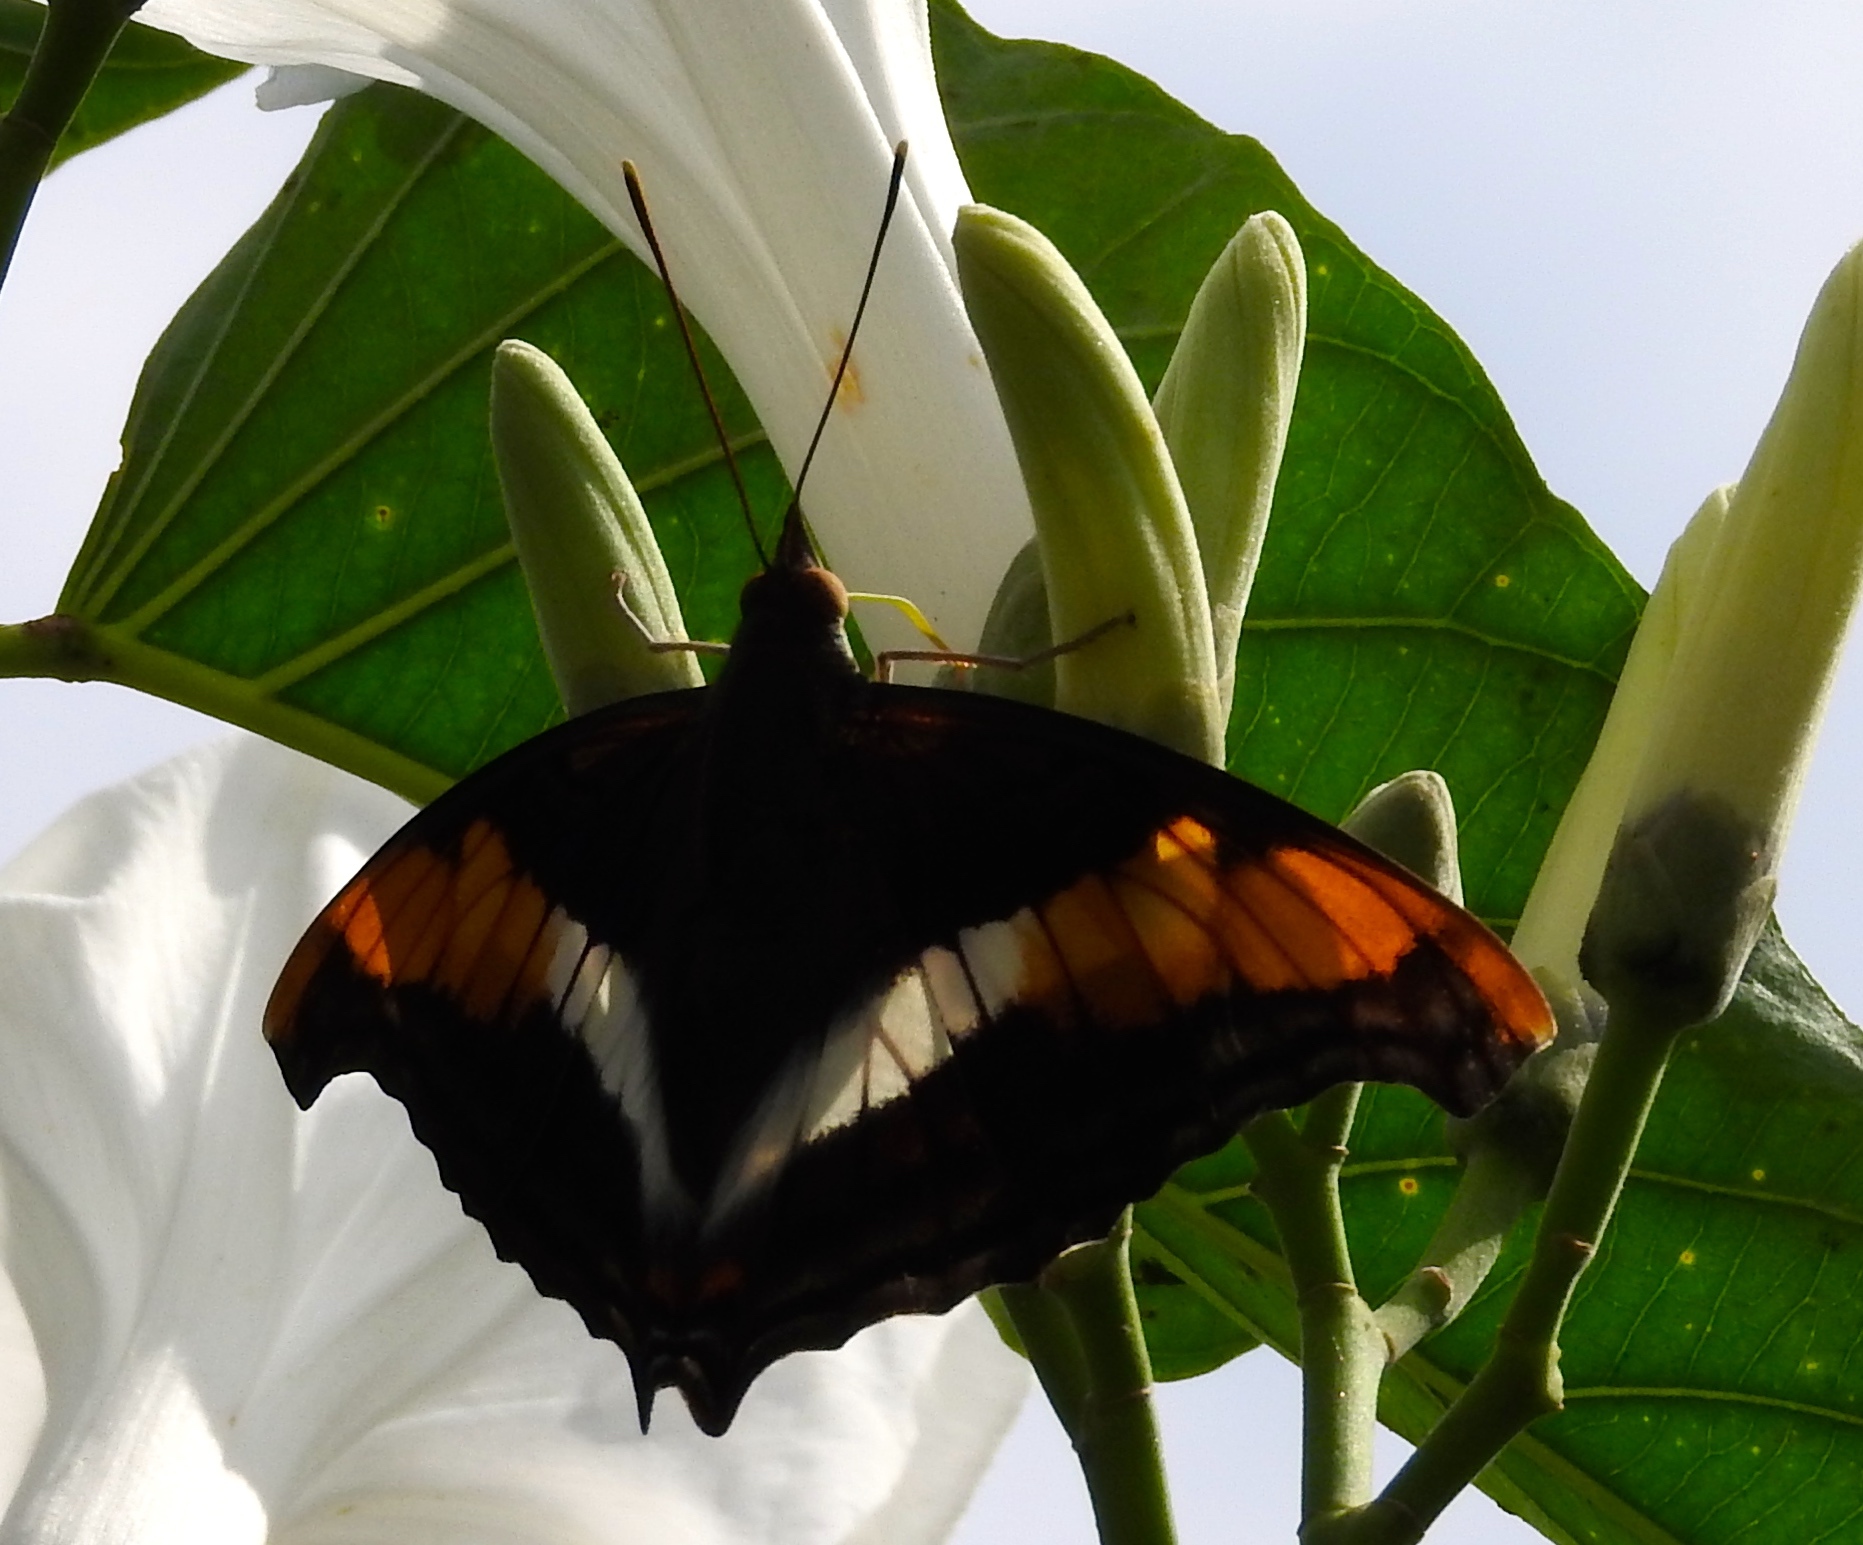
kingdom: Animalia
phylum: Arthropoda
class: Insecta
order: Lepidoptera
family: Nymphalidae
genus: Doxocopa
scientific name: Doxocopa laure
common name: Silver emperor
